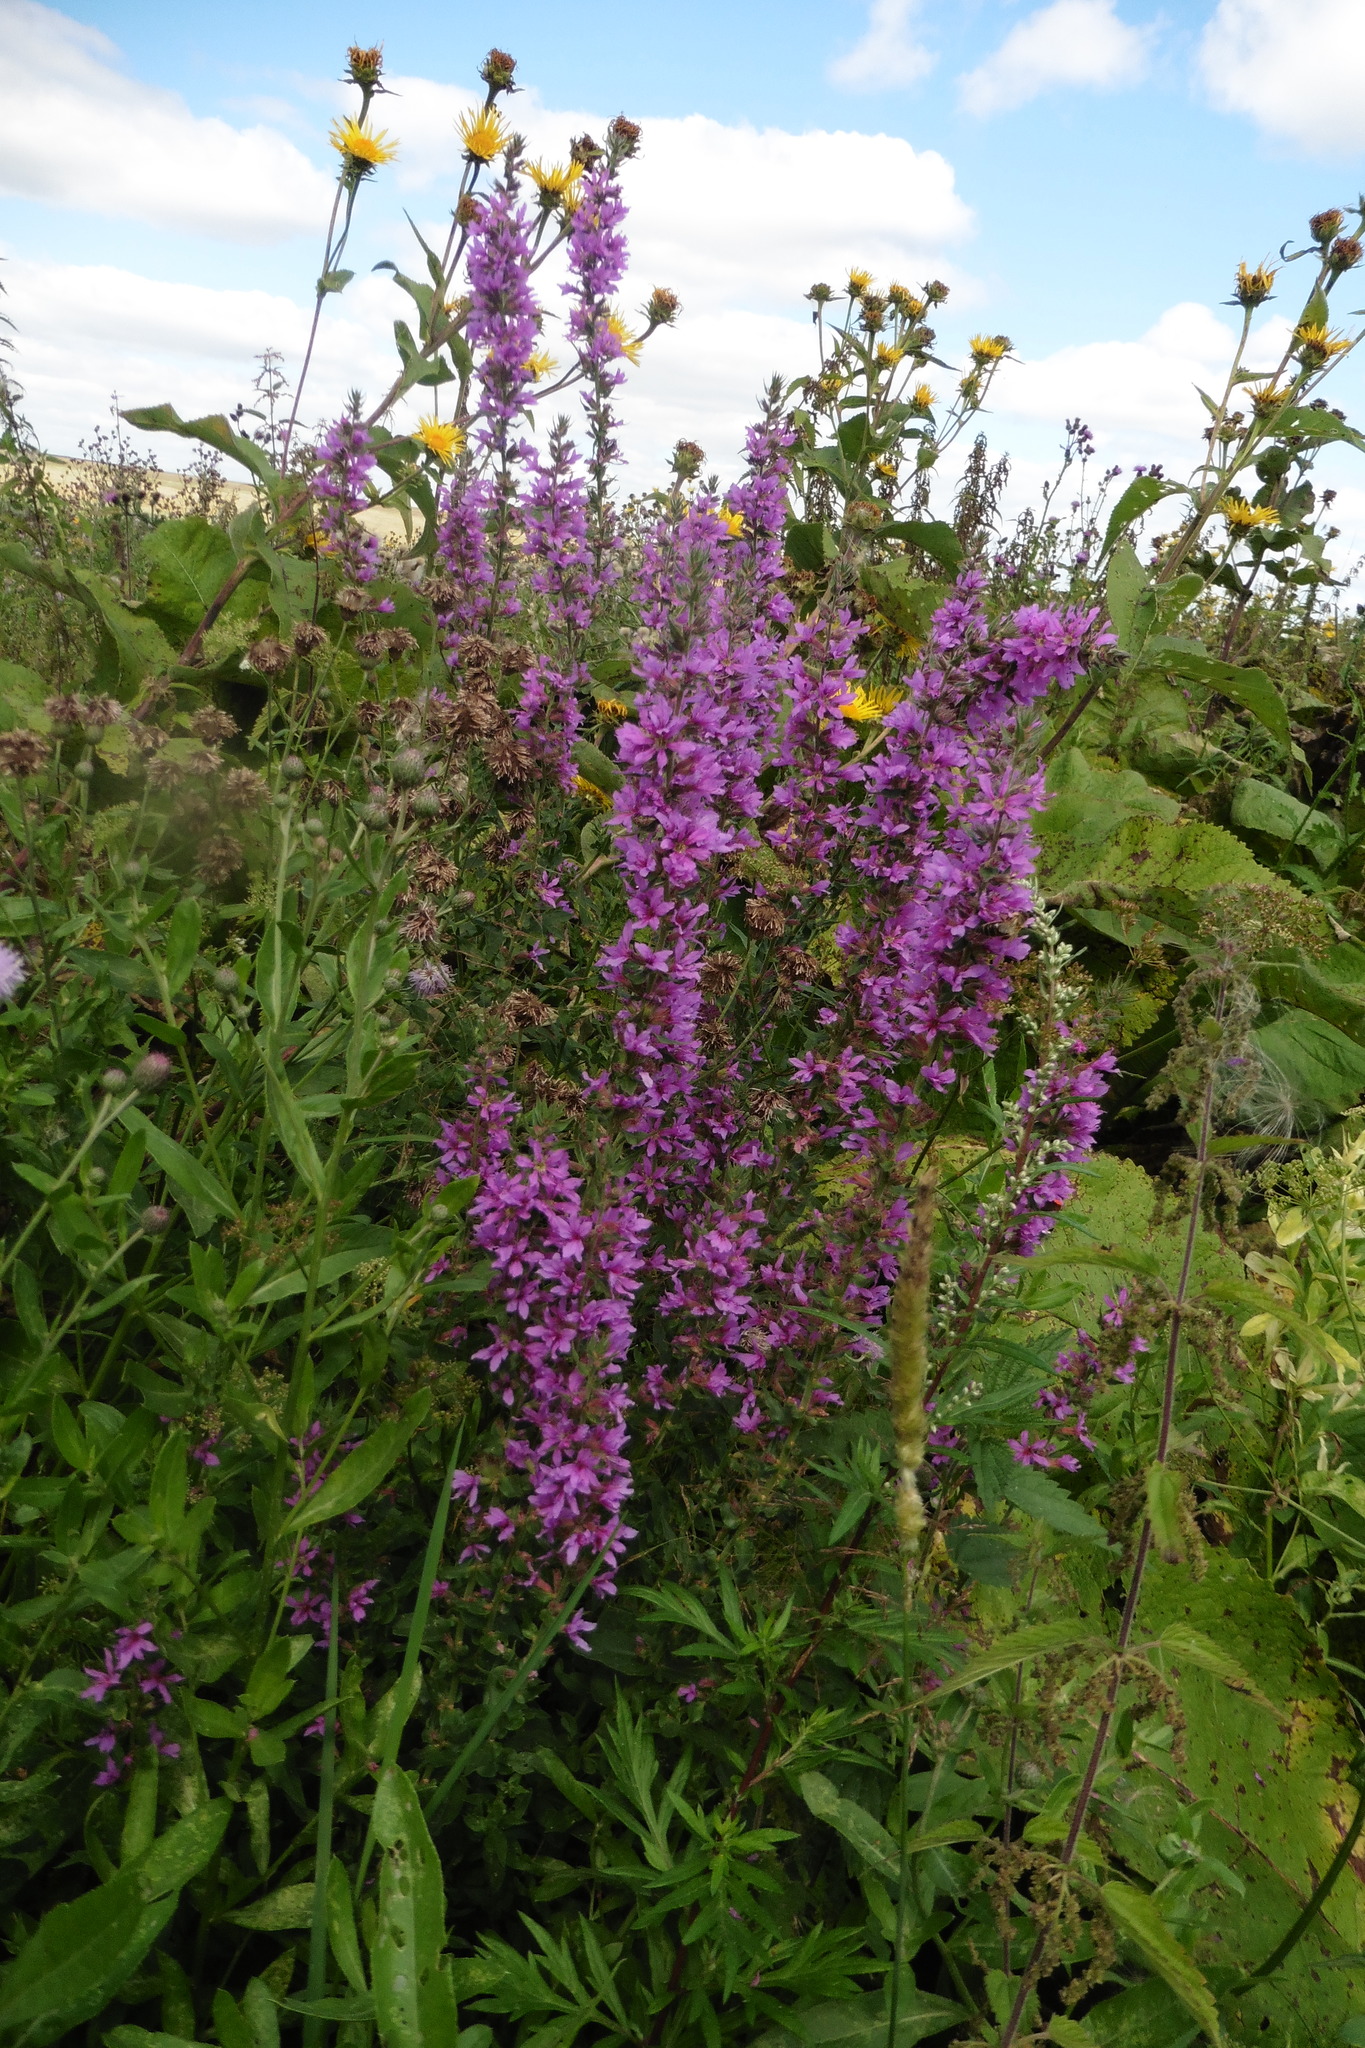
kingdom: Plantae
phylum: Tracheophyta
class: Magnoliopsida
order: Myrtales
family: Lythraceae
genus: Lythrum
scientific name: Lythrum salicaria
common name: Purple loosestrife
